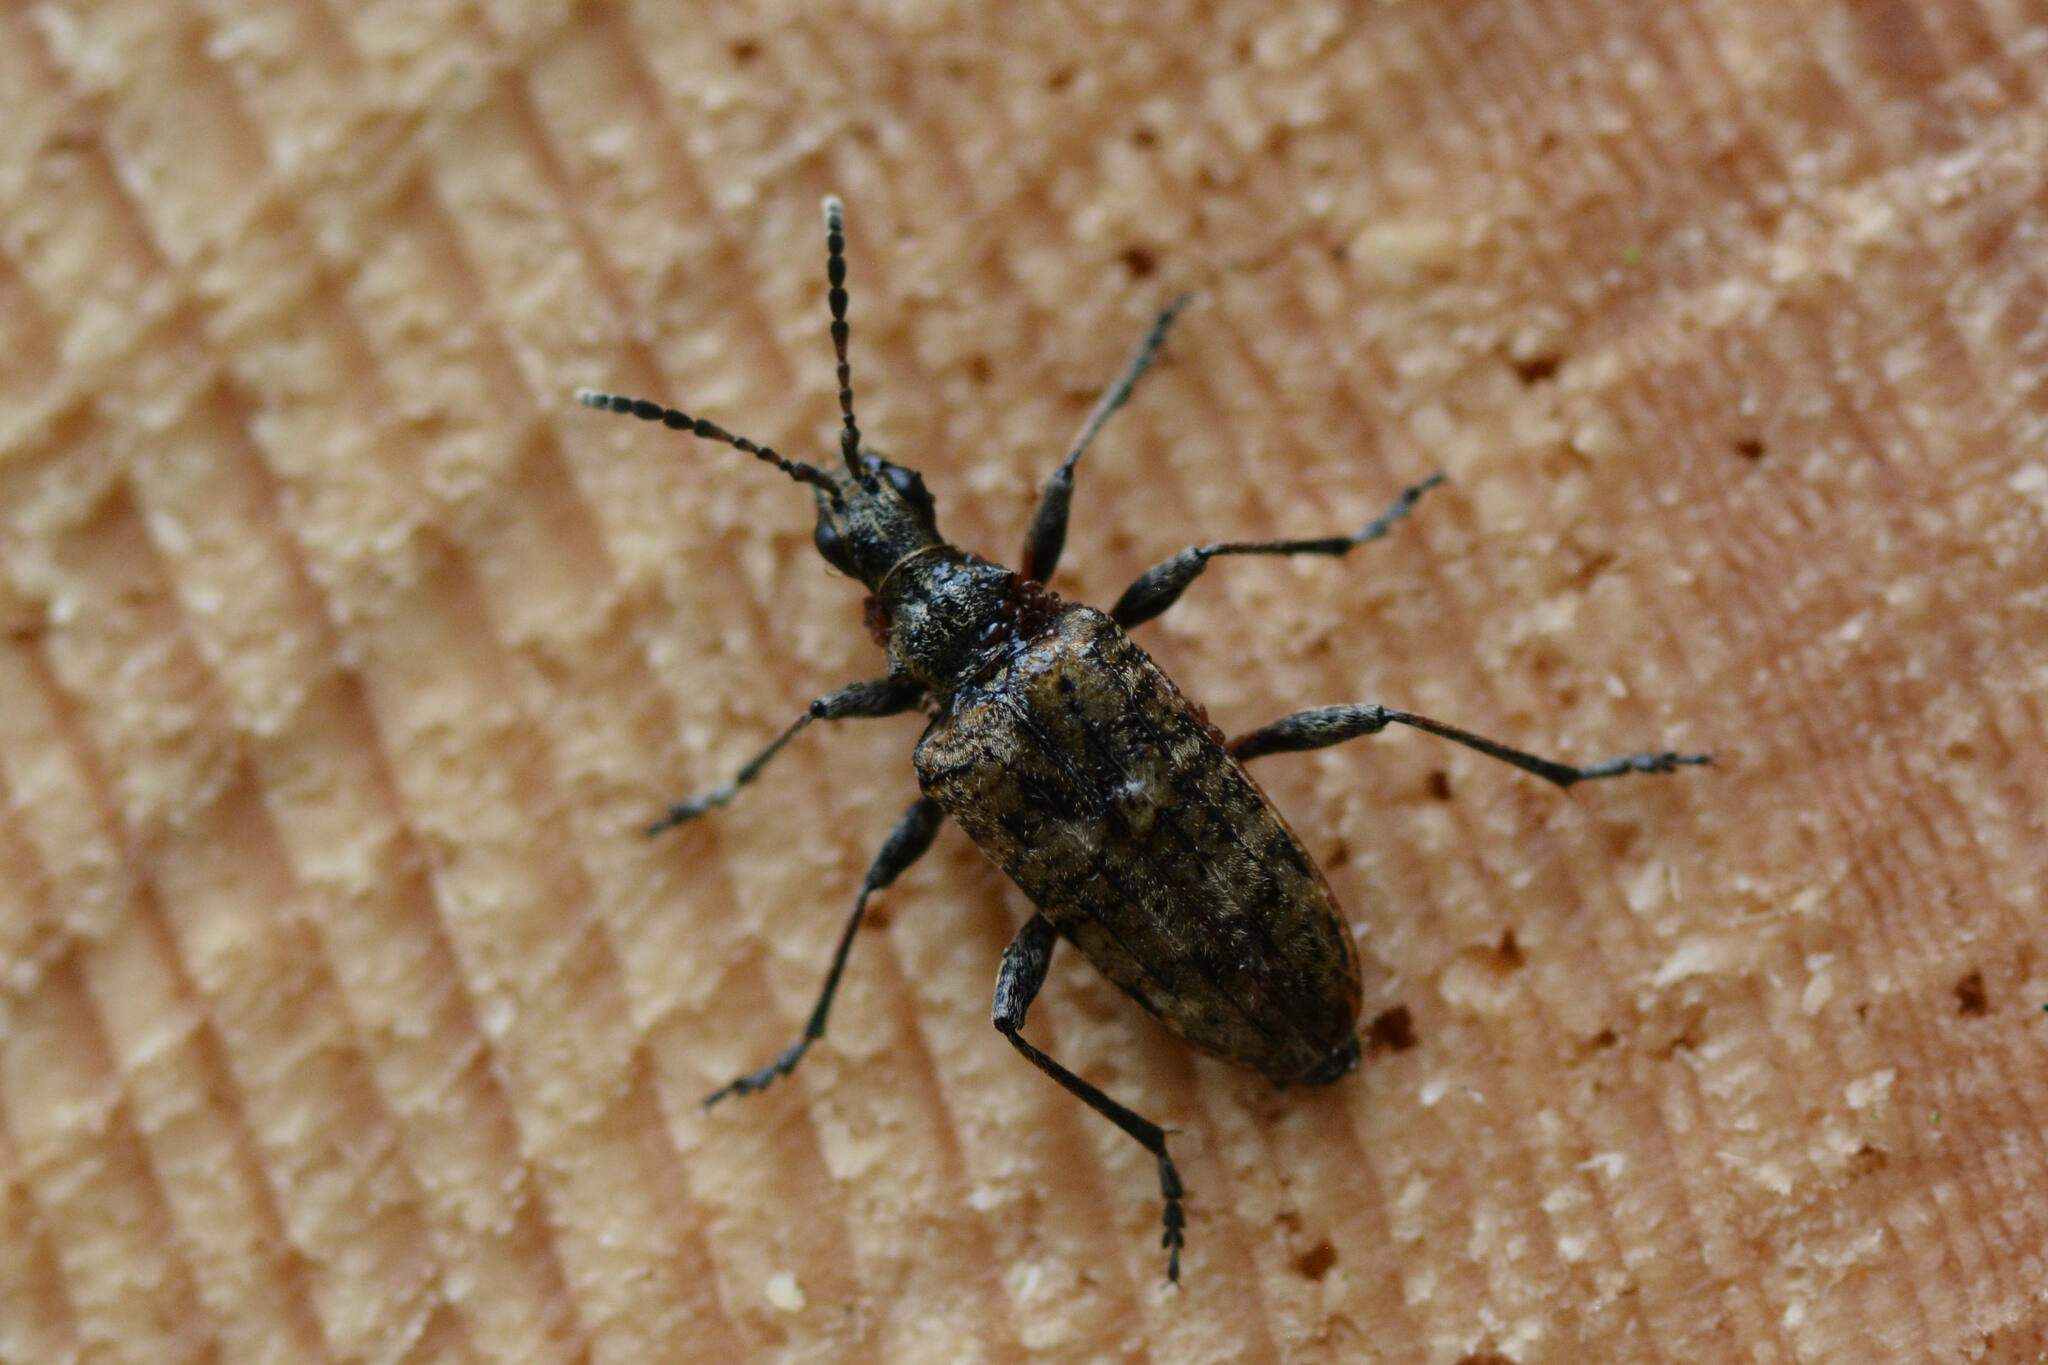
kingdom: Animalia
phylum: Arthropoda
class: Insecta
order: Coleoptera
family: Cerambycidae
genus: Rhagium
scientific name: Rhagium inquisitor
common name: Ribbed pine borer
